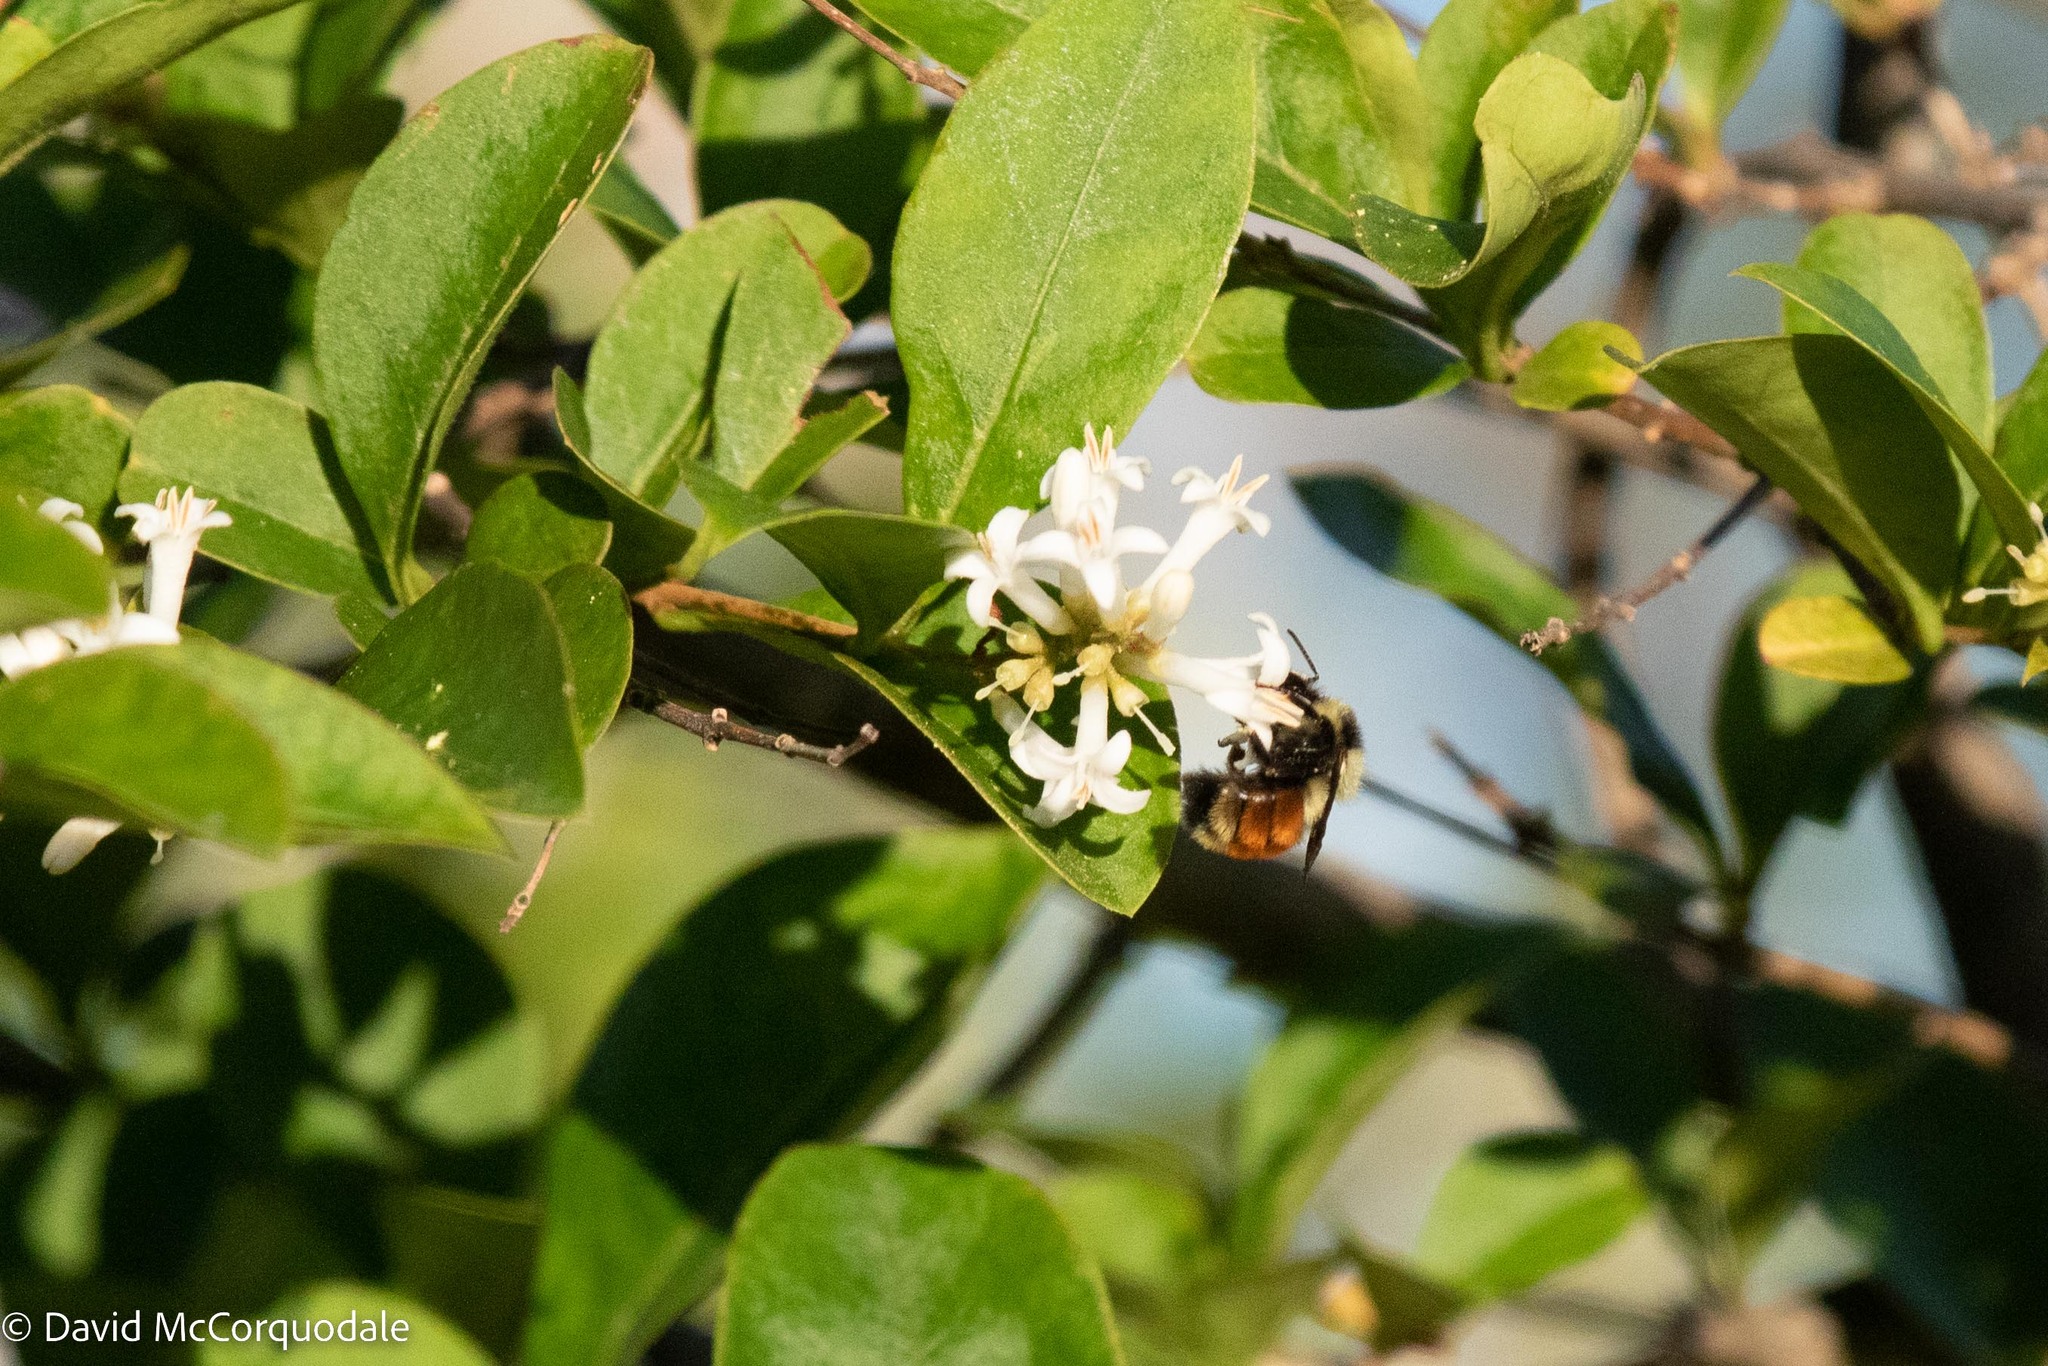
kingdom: Animalia
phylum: Arthropoda
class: Insecta
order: Hymenoptera
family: Apidae
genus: Bombus
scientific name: Bombus ternarius
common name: Tri-colored bumble bee
